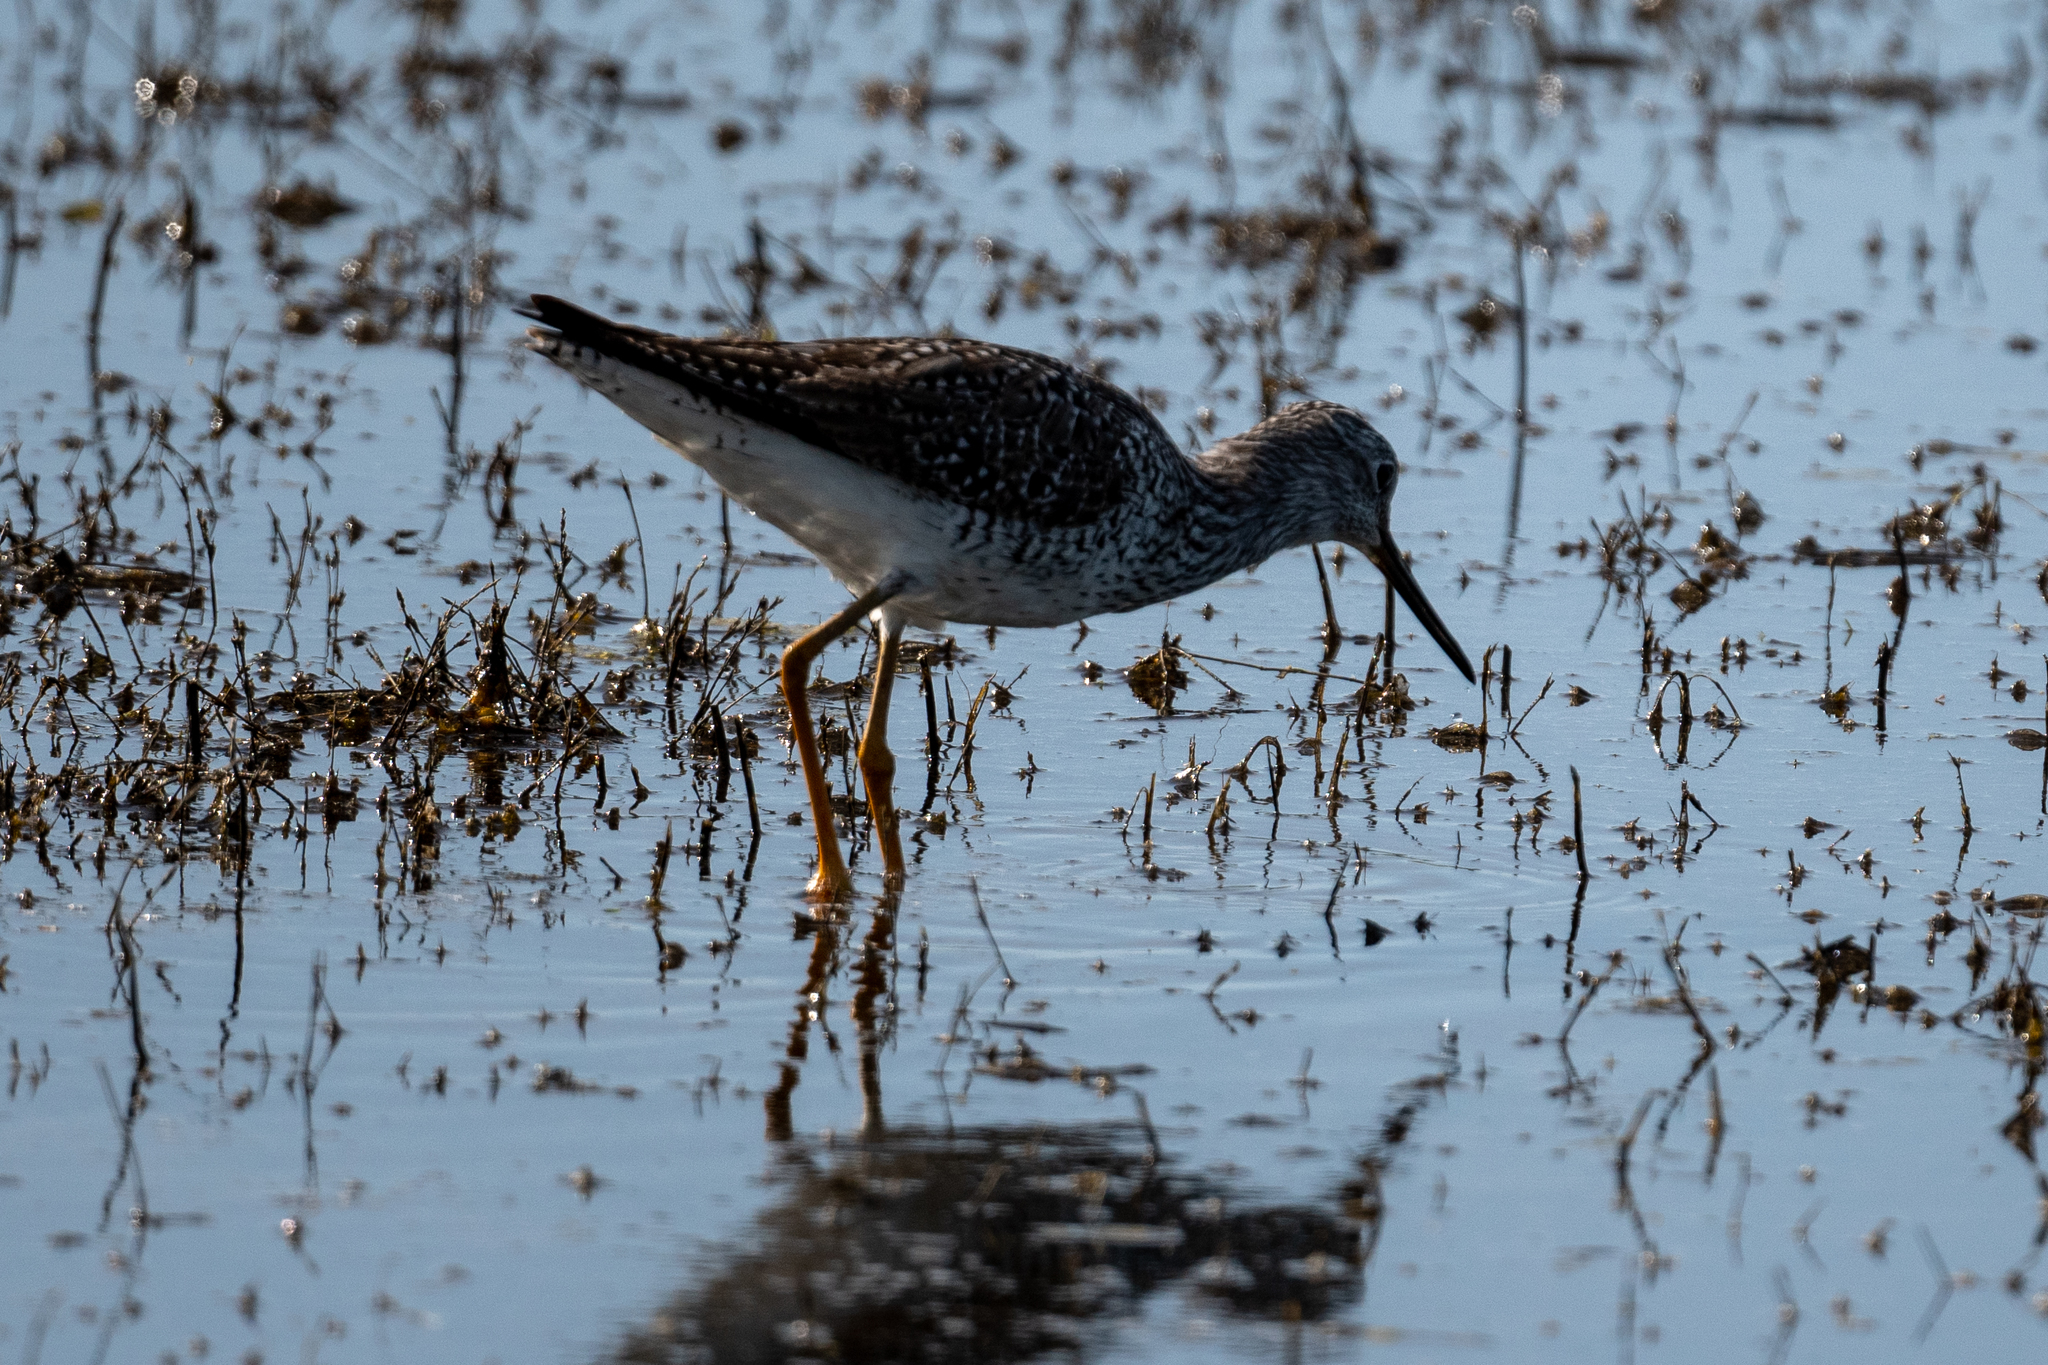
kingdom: Animalia
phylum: Chordata
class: Aves
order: Charadriiformes
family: Scolopacidae
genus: Tringa
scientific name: Tringa melanoleuca
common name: Greater yellowlegs
